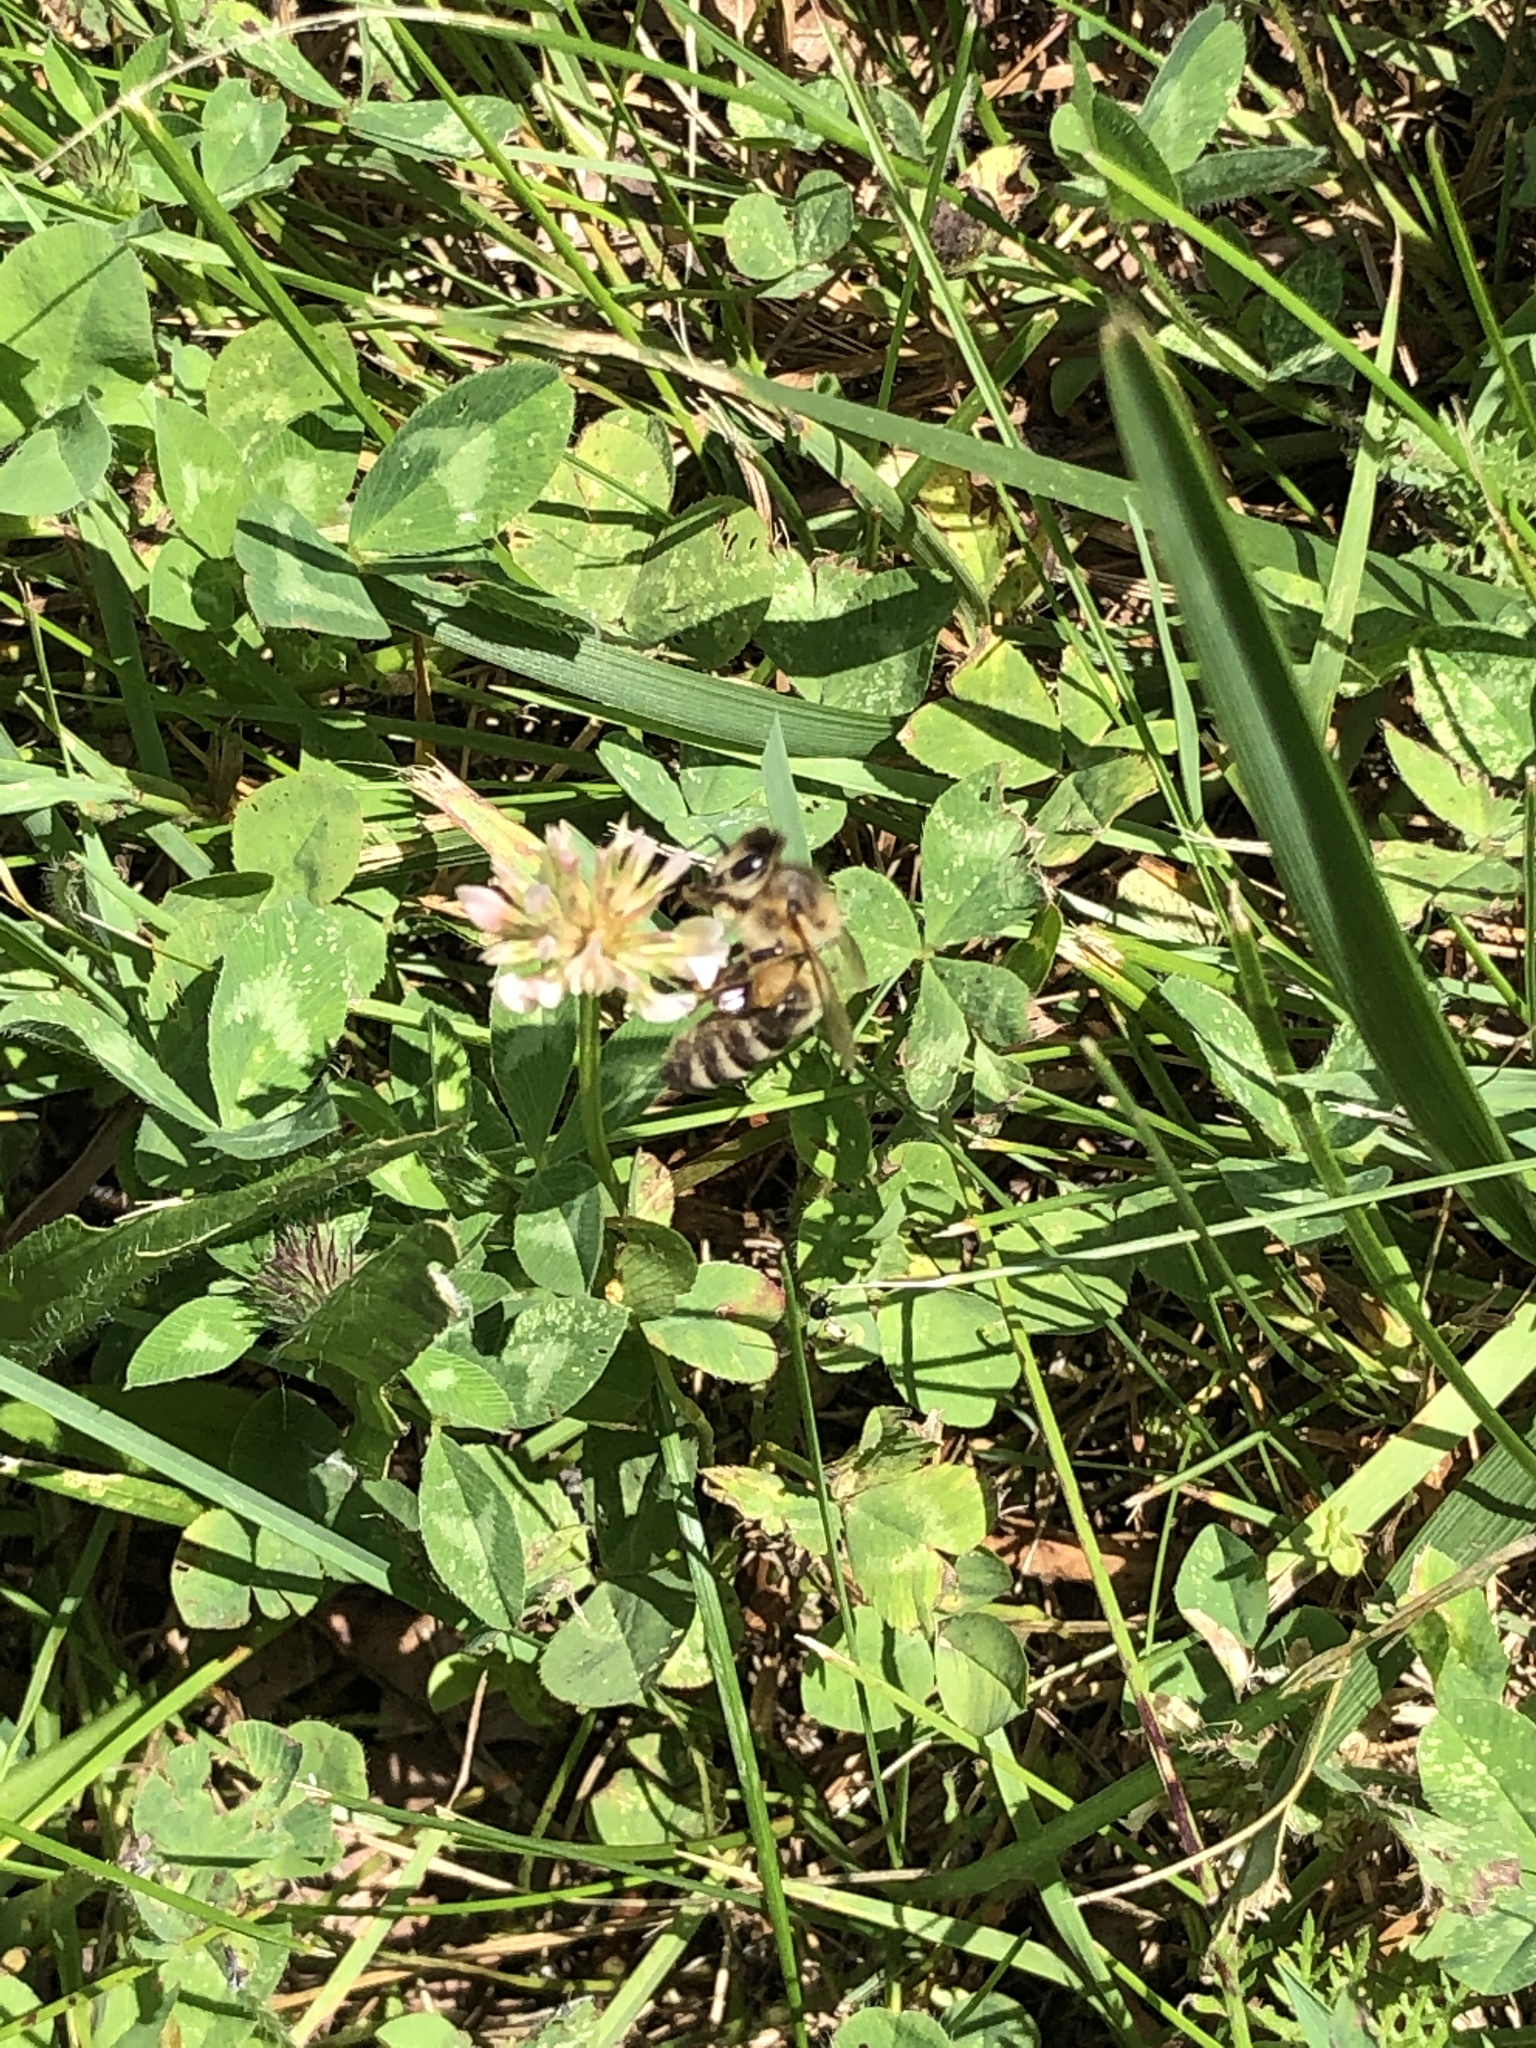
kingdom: Animalia
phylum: Arthropoda
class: Insecta
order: Hymenoptera
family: Apidae
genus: Apis
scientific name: Apis mellifera
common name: Honey bee
